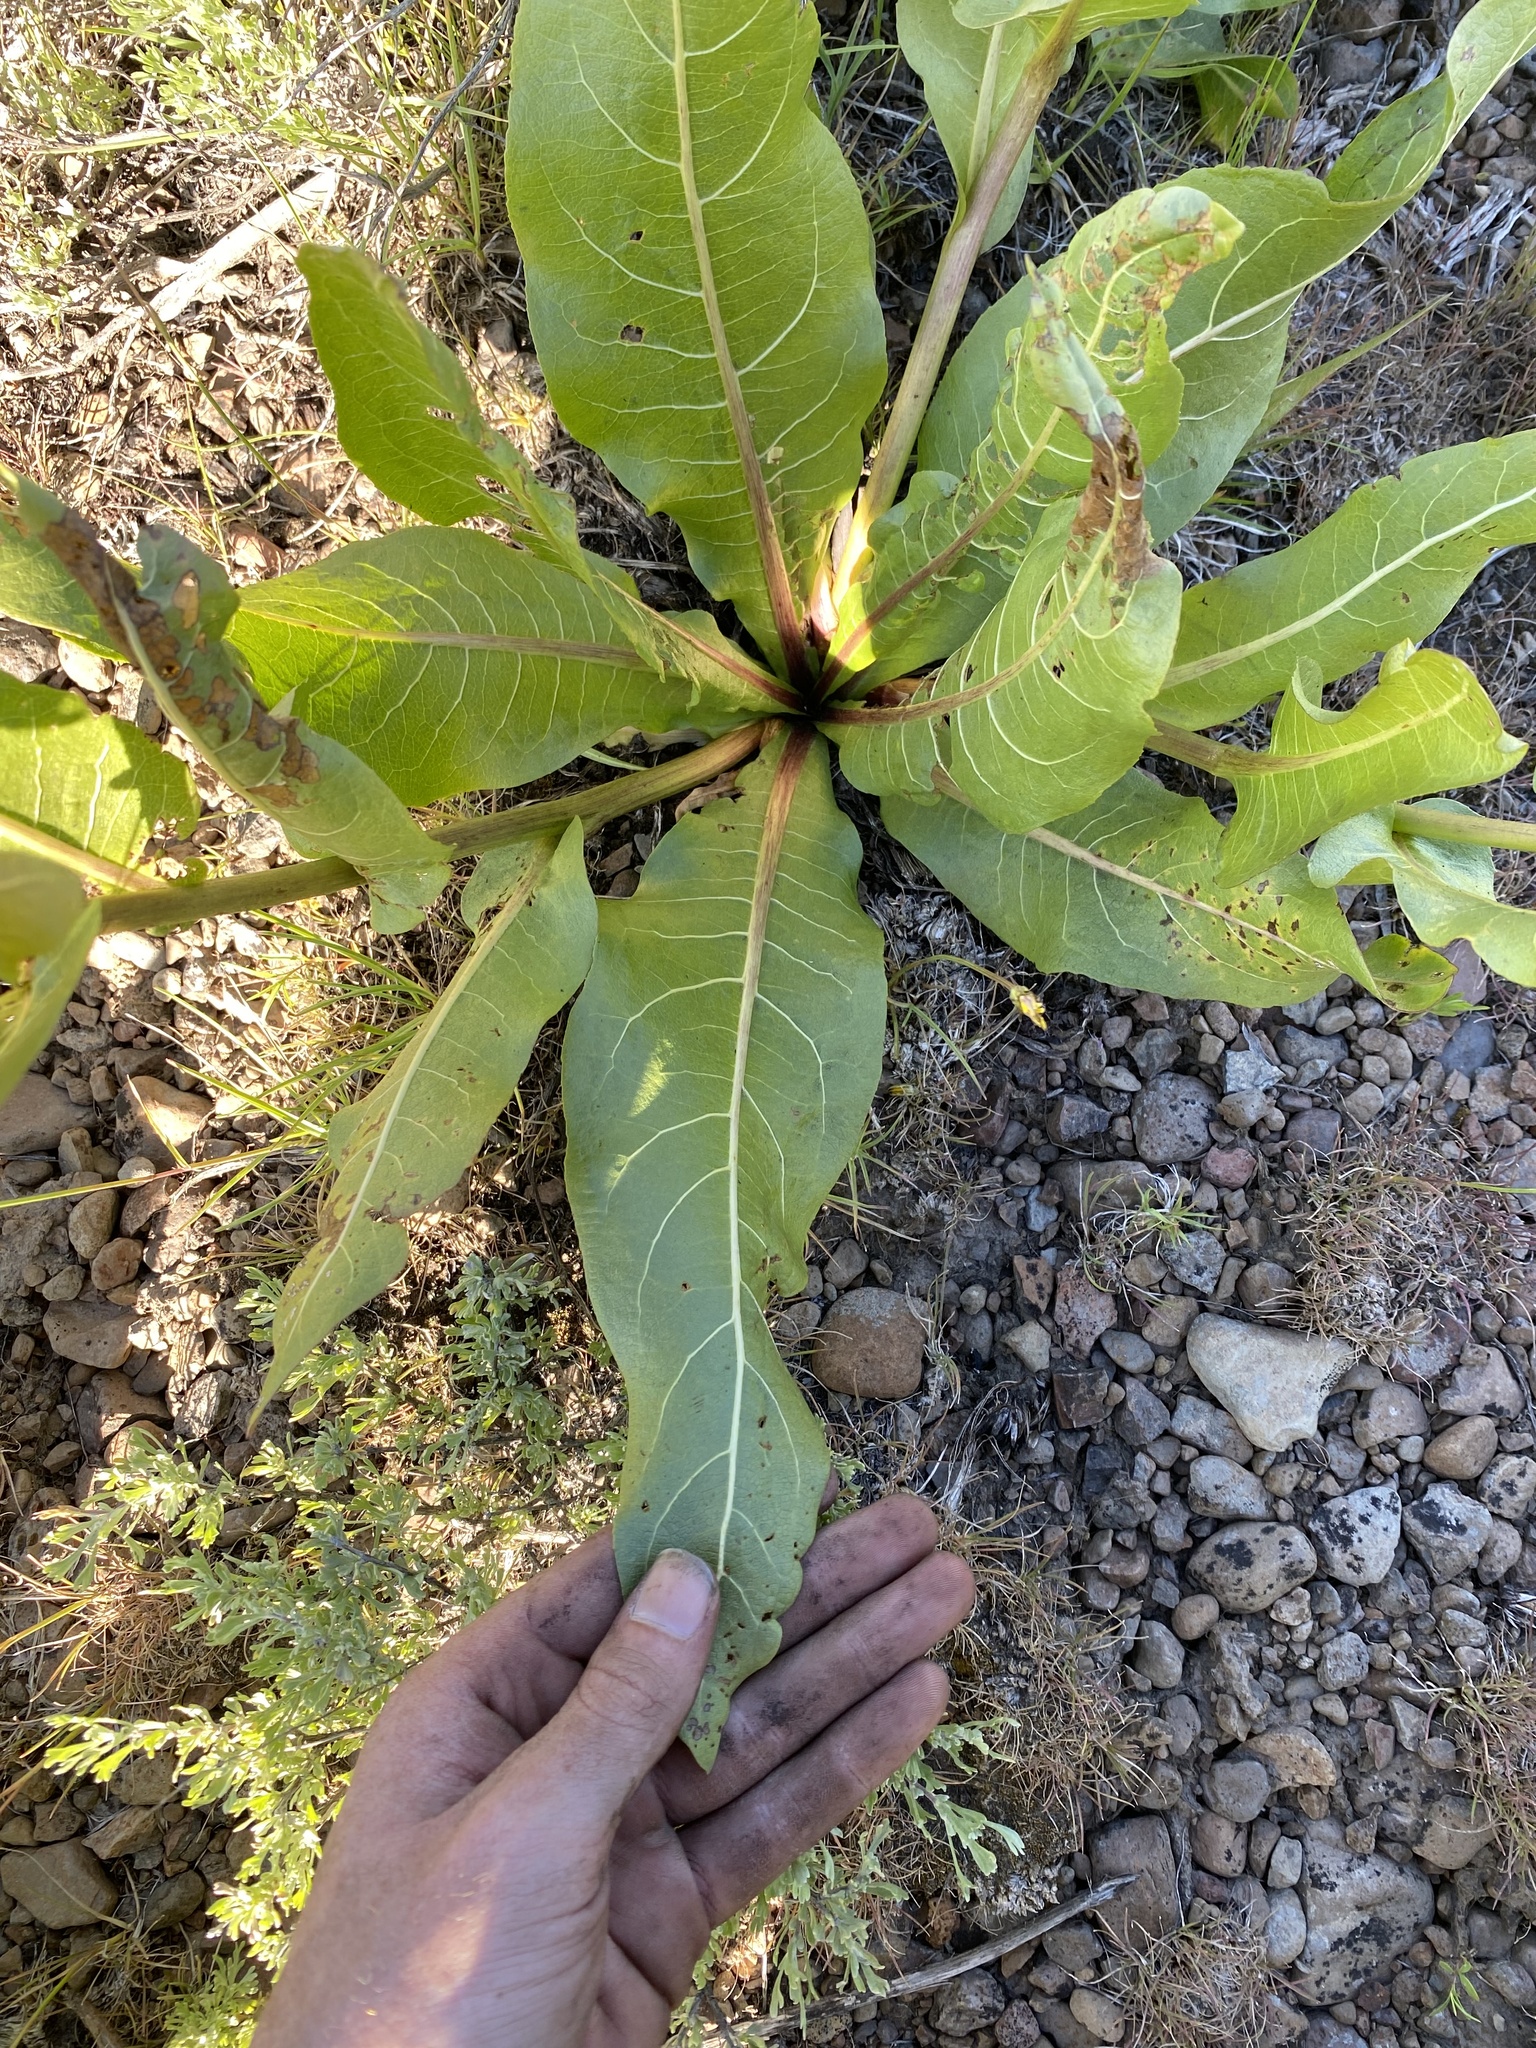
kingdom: Plantae
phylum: Tracheophyta
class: Magnoliopsida
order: Asterales
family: Asteraceae
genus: Wyethia
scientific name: Wyethia amplexicaulis
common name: Northern mule's-ears
